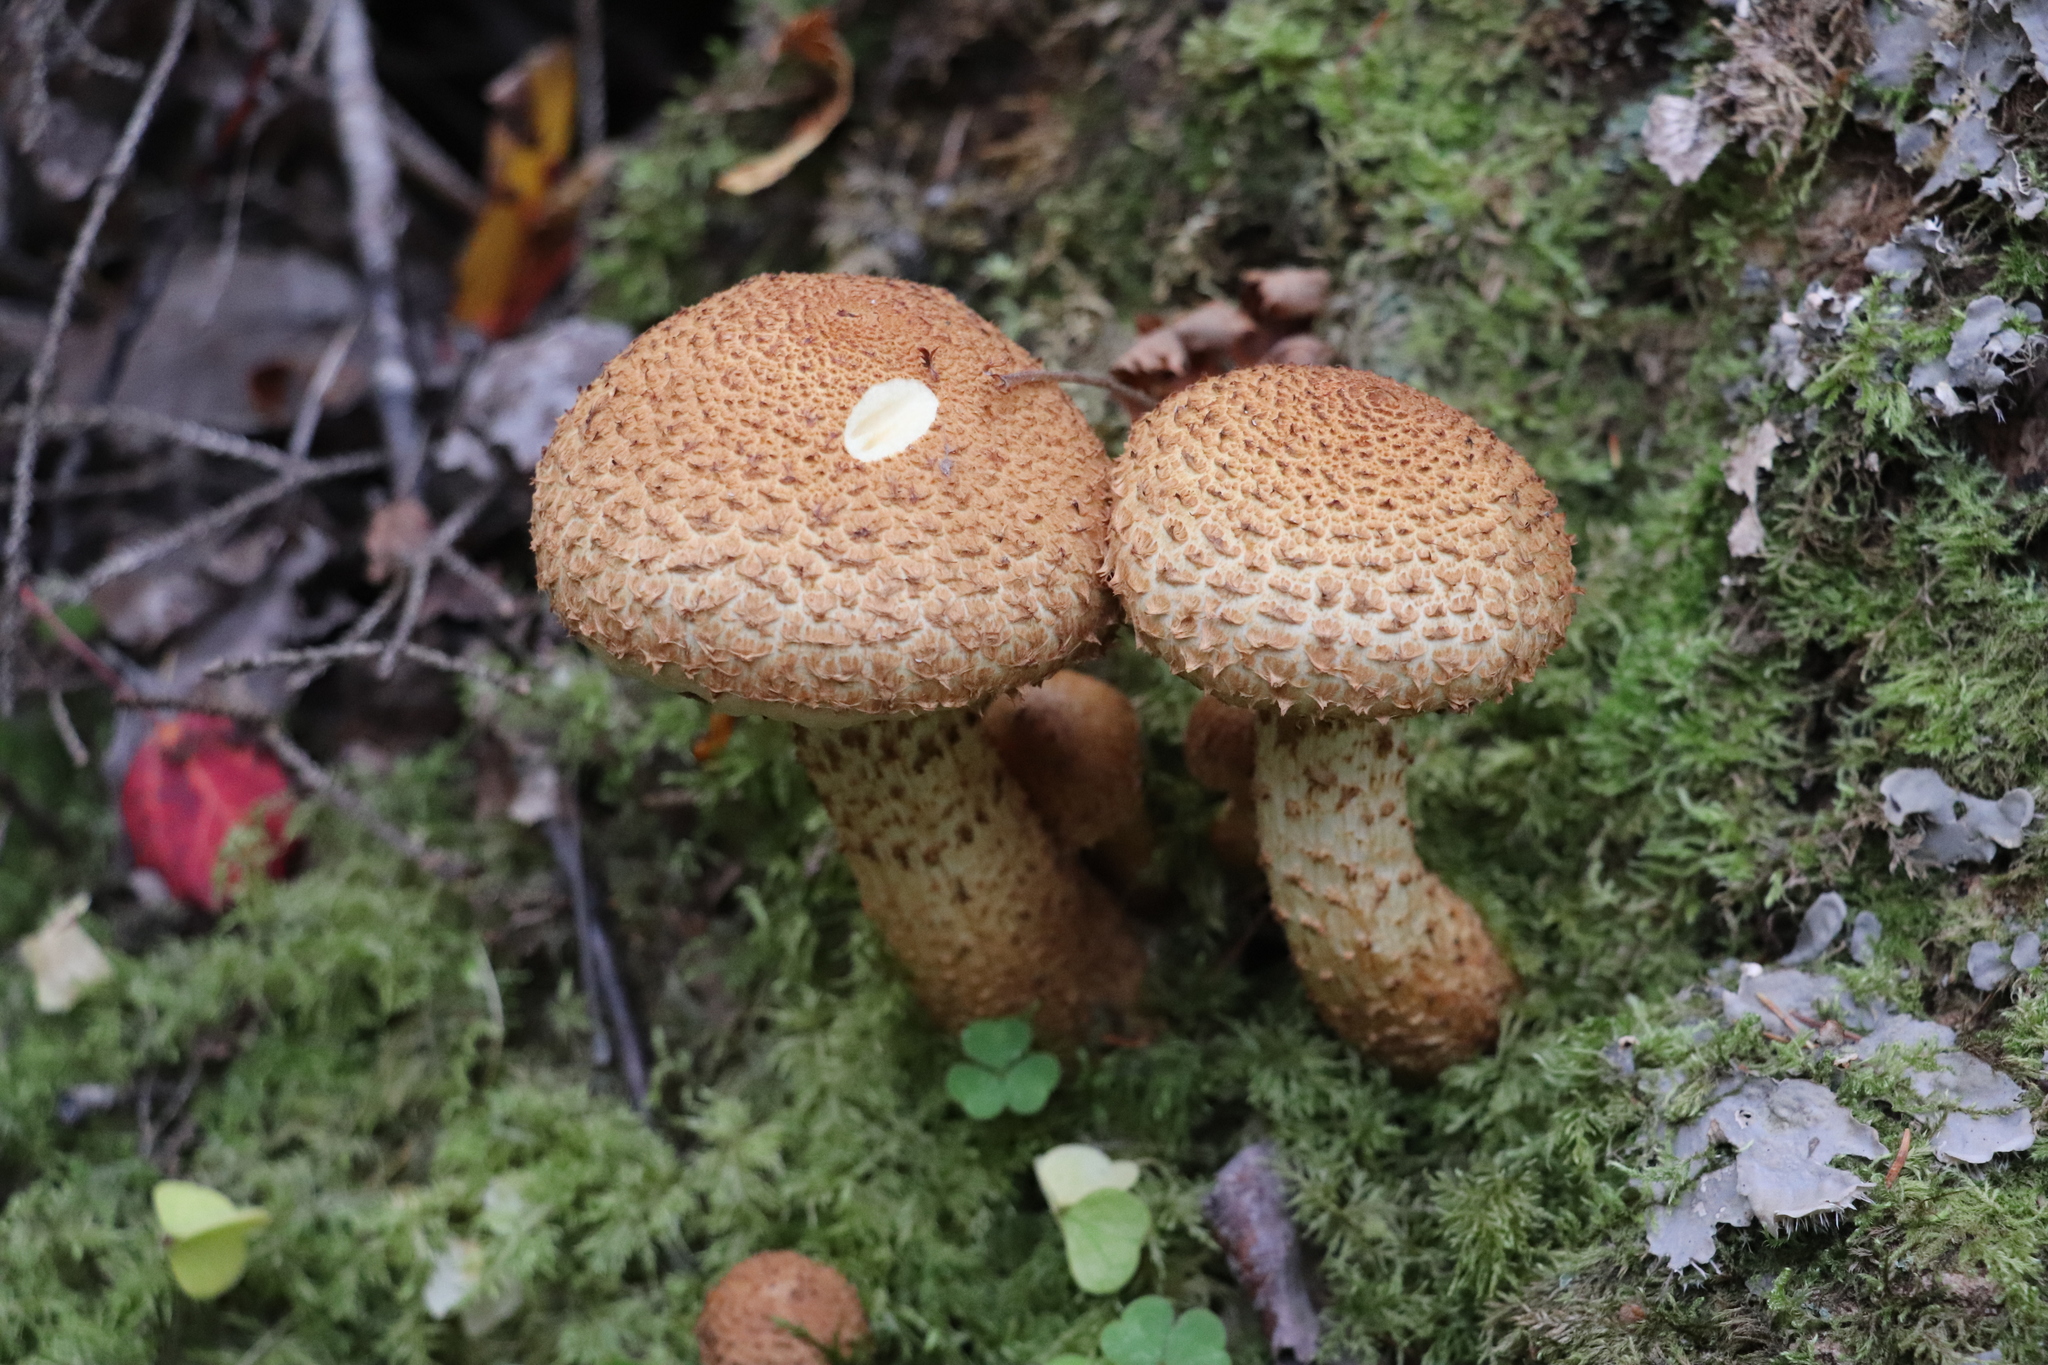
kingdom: Fungi
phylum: Basidiomycota
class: Agaricomycetes
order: Agaricales
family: Strophariaceae
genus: Pholiota
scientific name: Pholiota squarrosa
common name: Shaggy pholiota
